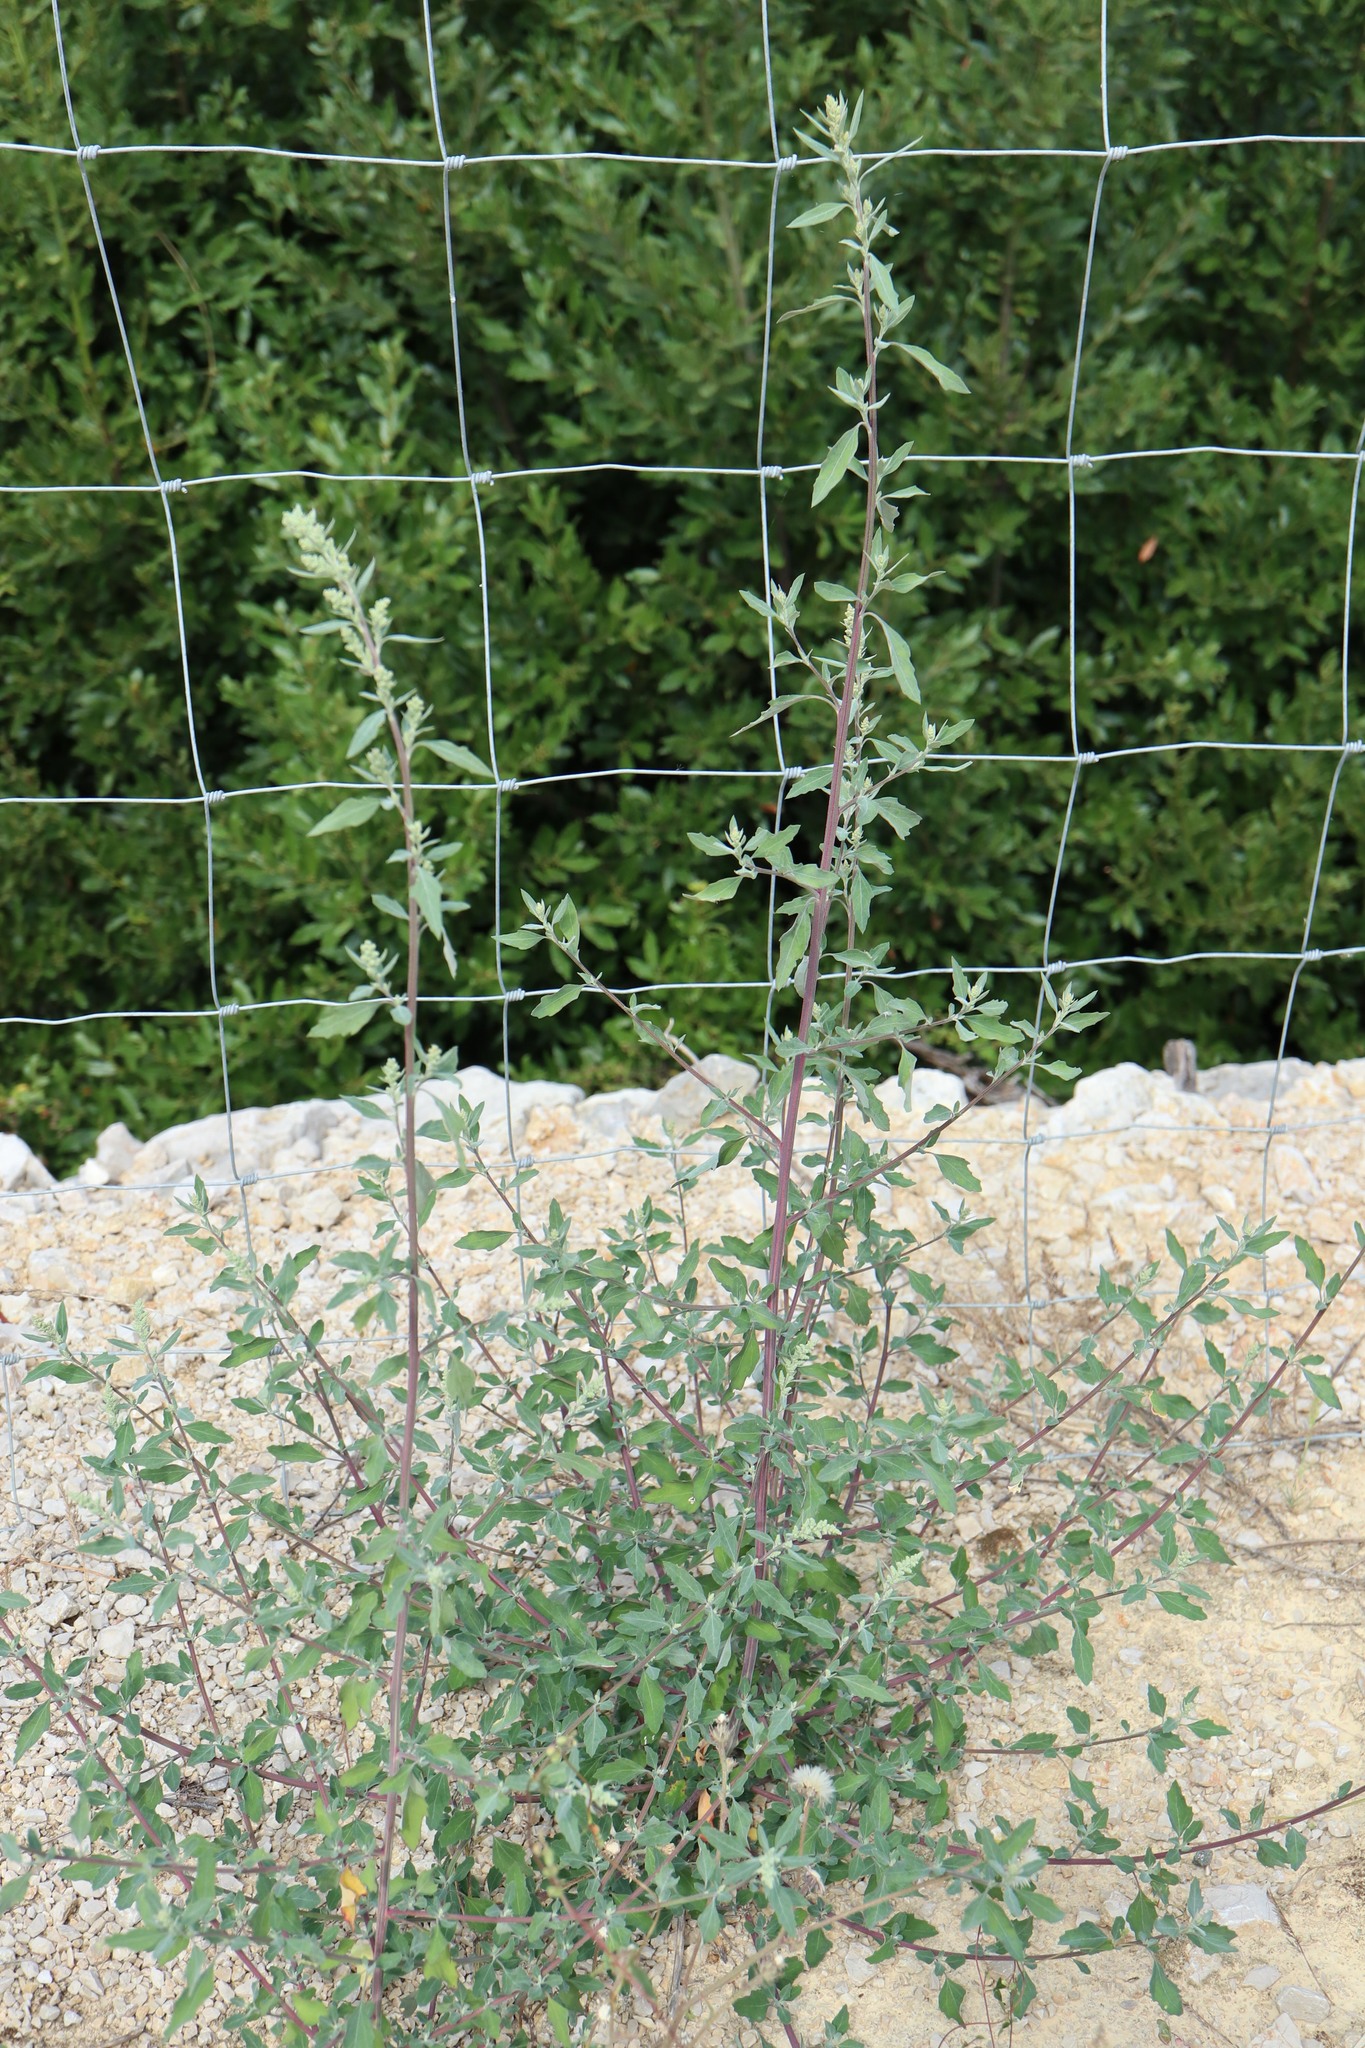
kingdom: Plantae
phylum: Tracheophyta
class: Magnoliopsida
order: Caryophyllales
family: Amaranthaceae
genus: Chenopodium
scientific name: Chenopodium album
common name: Fat-hen
